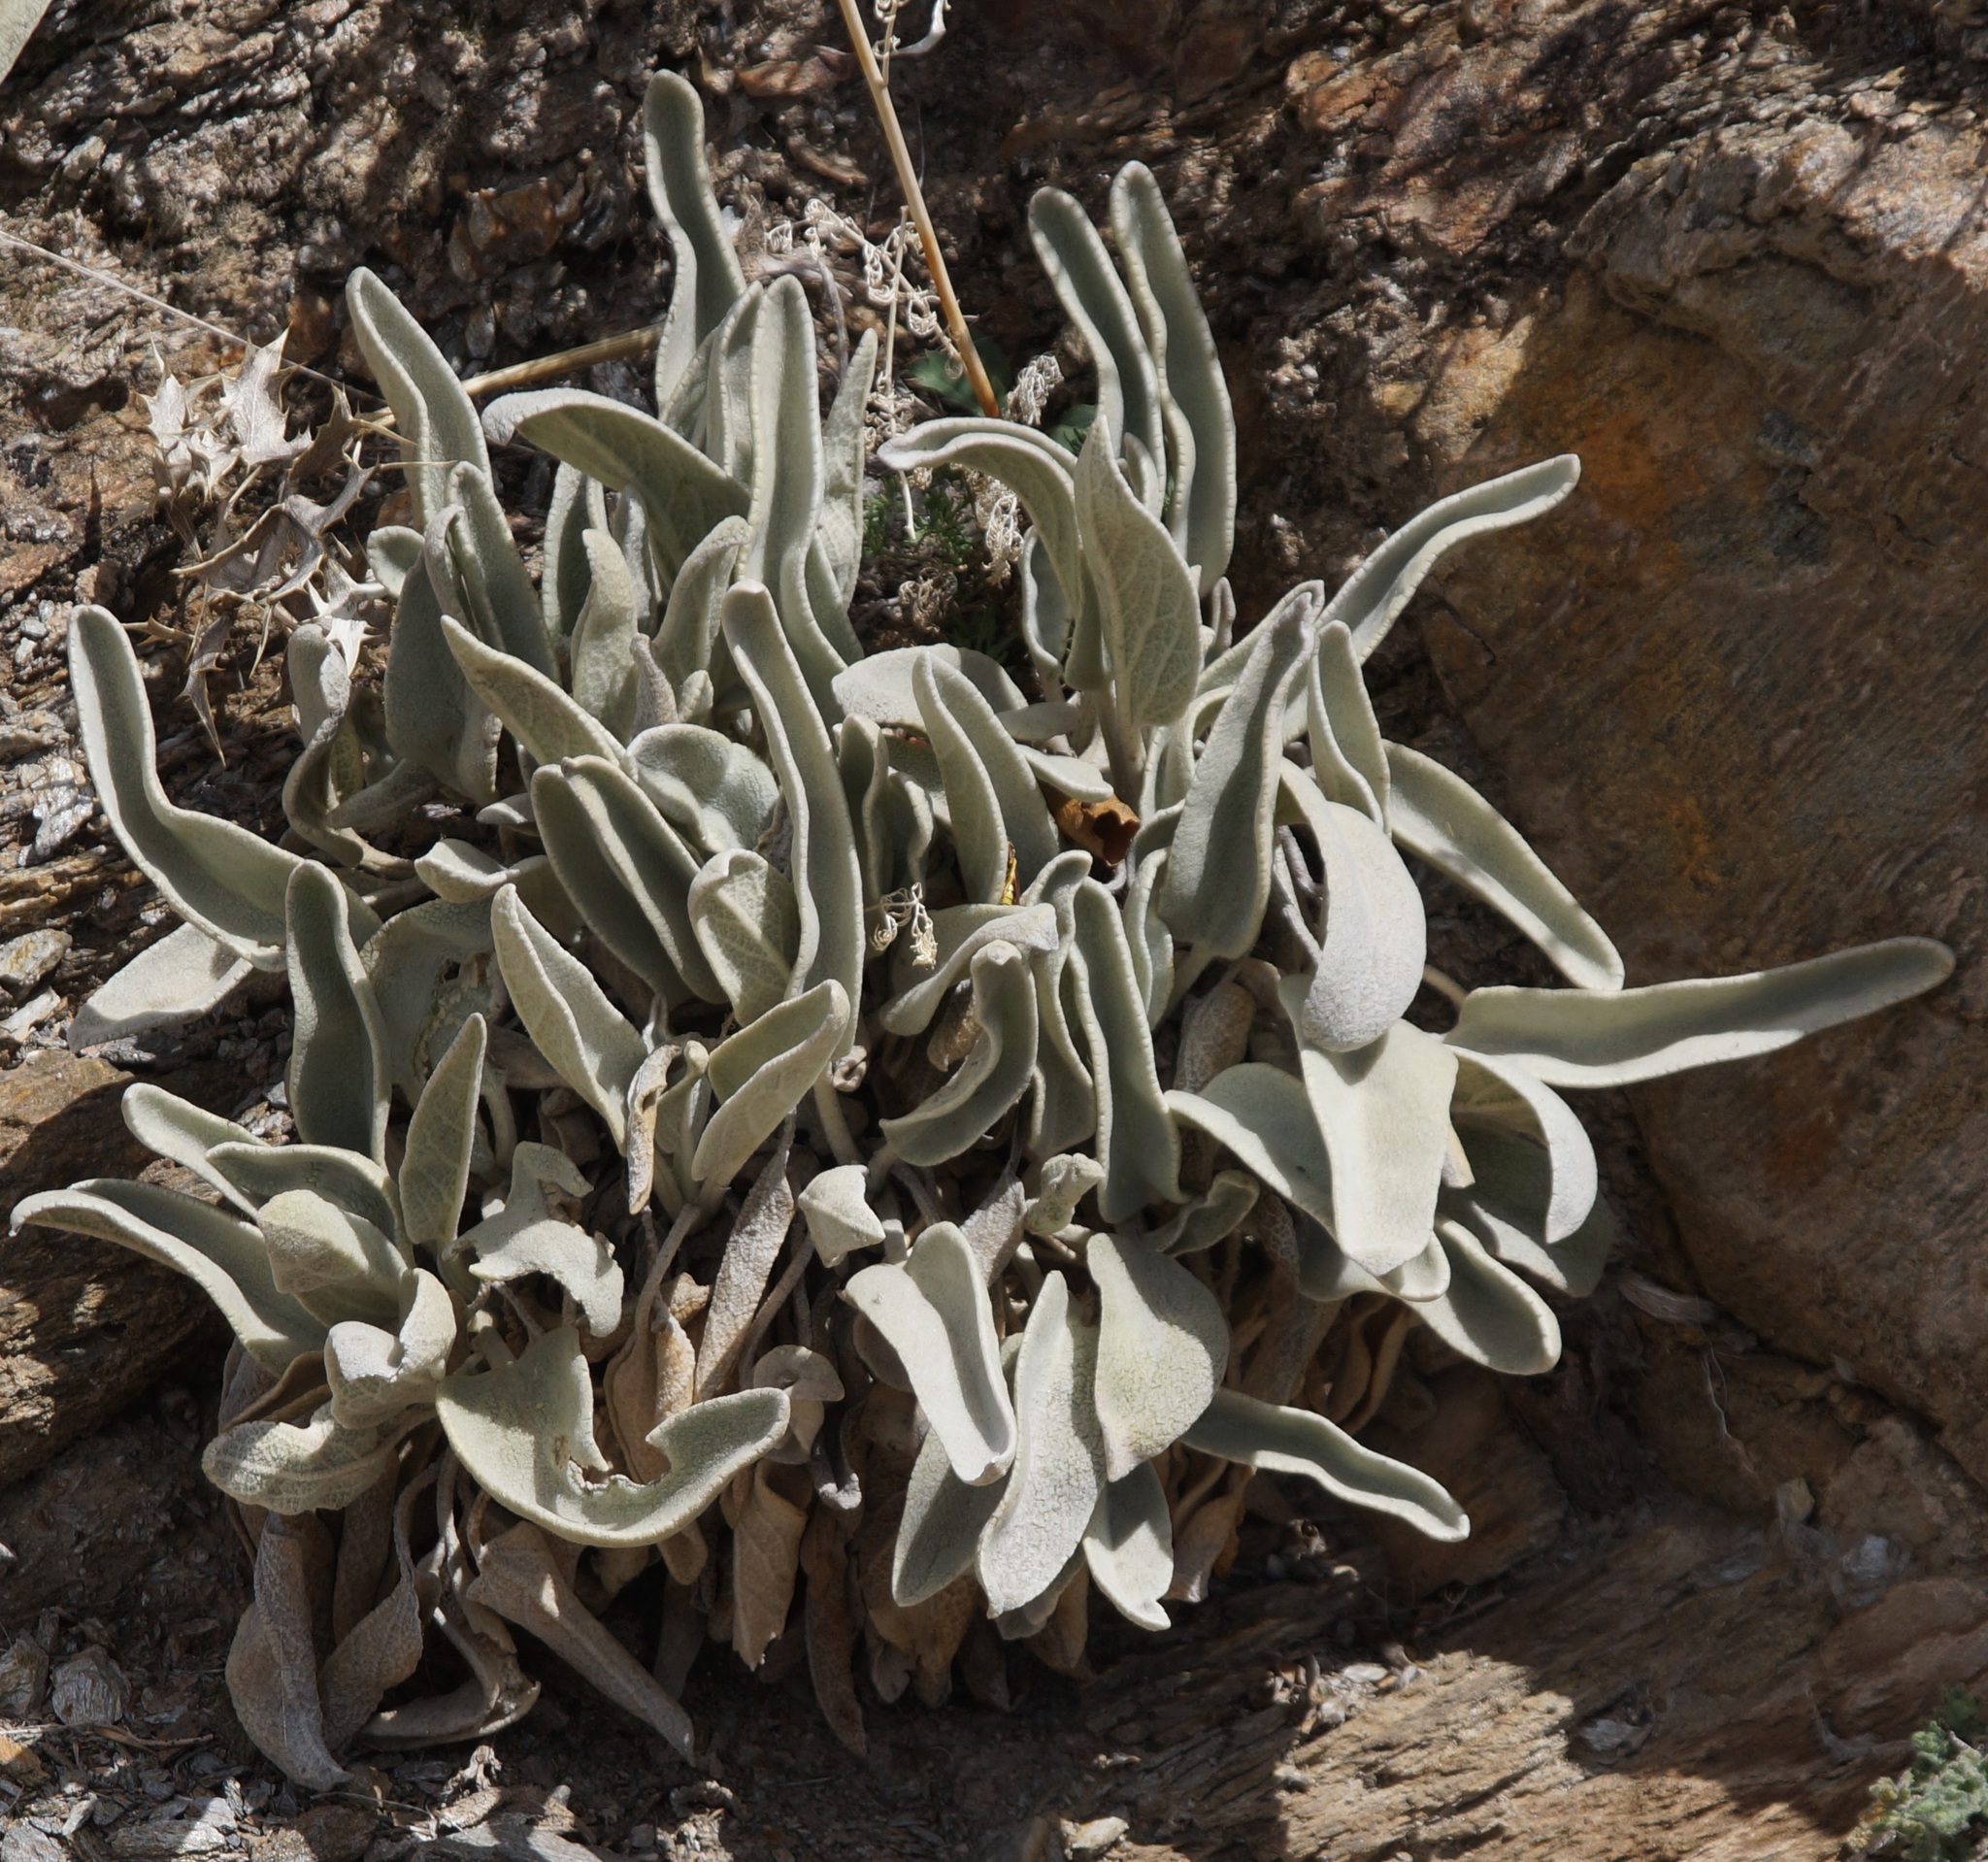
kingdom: Plantae
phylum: Tracheophyta
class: Magnoliopsida
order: Lamiales
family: Lamiaceae
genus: Phlomis
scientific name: Phlomis crinita
